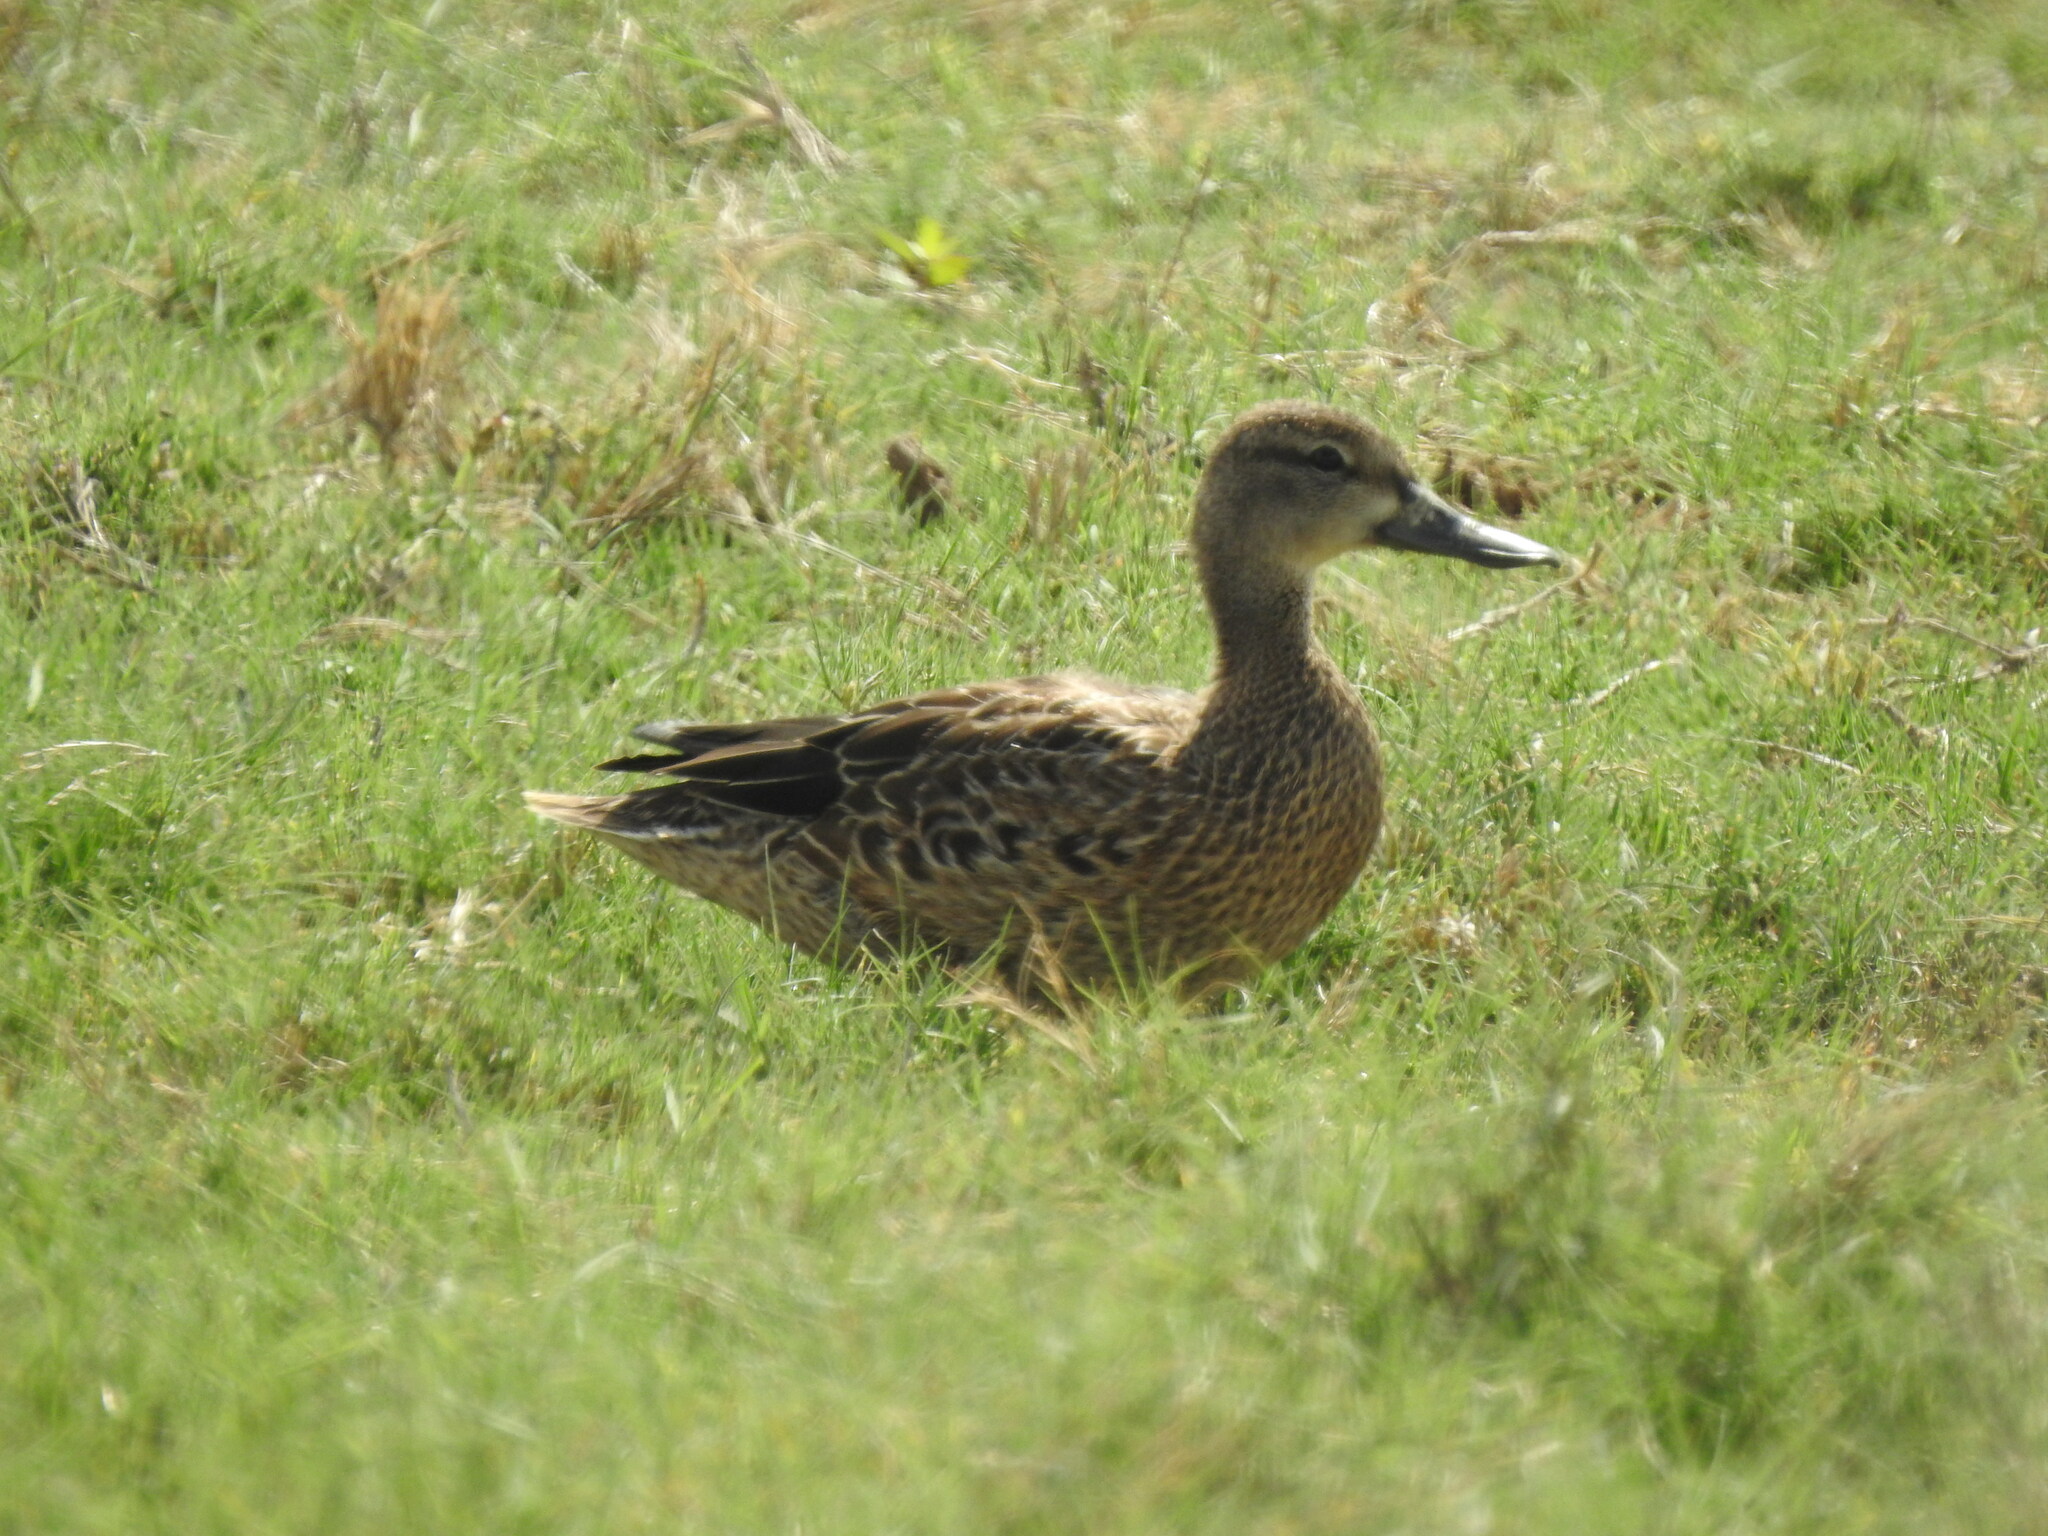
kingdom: Animalia
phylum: Chordata
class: Aves
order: Anseriformes
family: Anatidae
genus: Spatula
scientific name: Spatula discors
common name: Blue-winged teal
